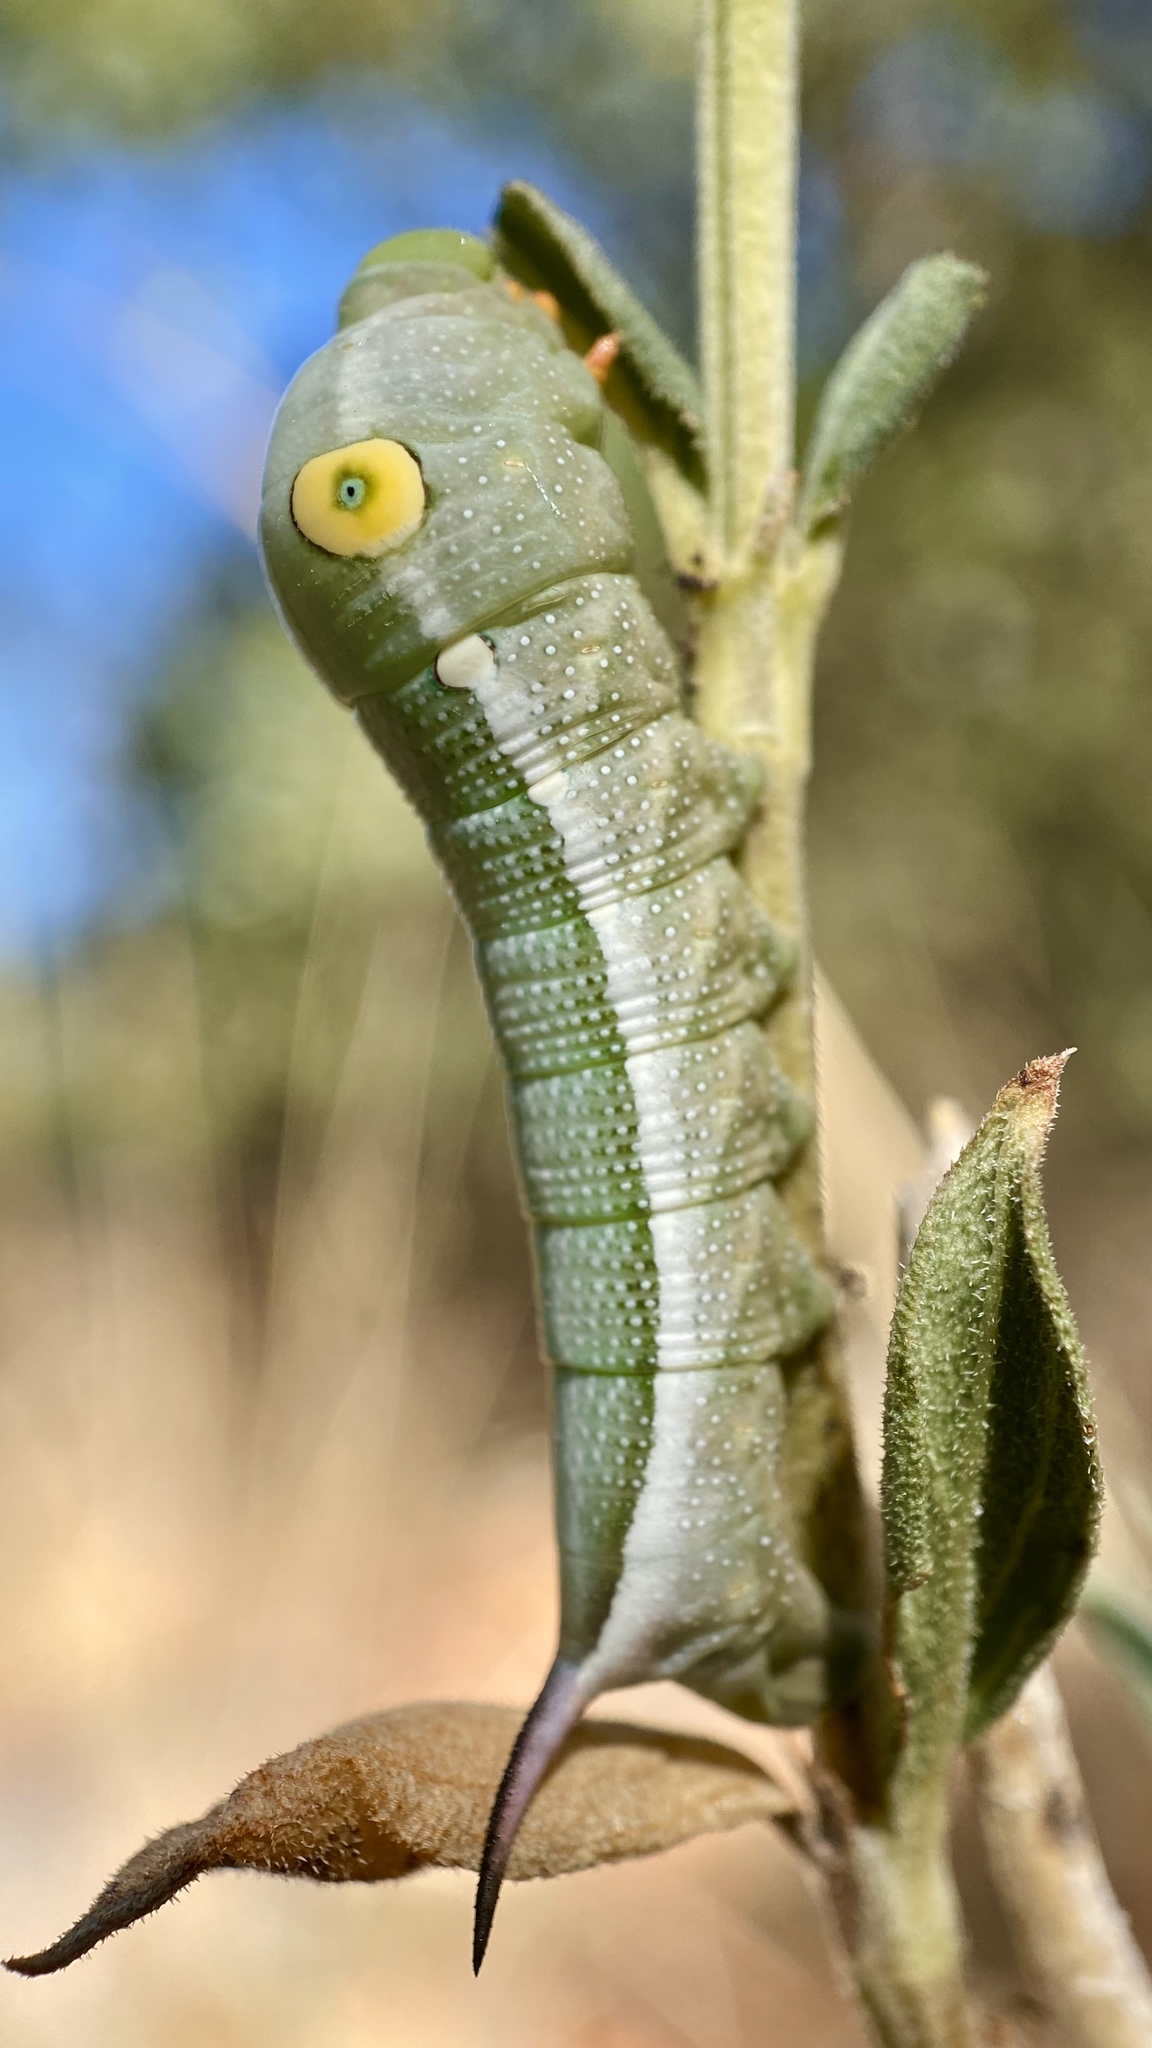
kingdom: Animalia
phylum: Arthropoda
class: Insecta
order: Lepidoptera
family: Sphingidae
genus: Xylophanes
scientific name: Xylophanes falco
